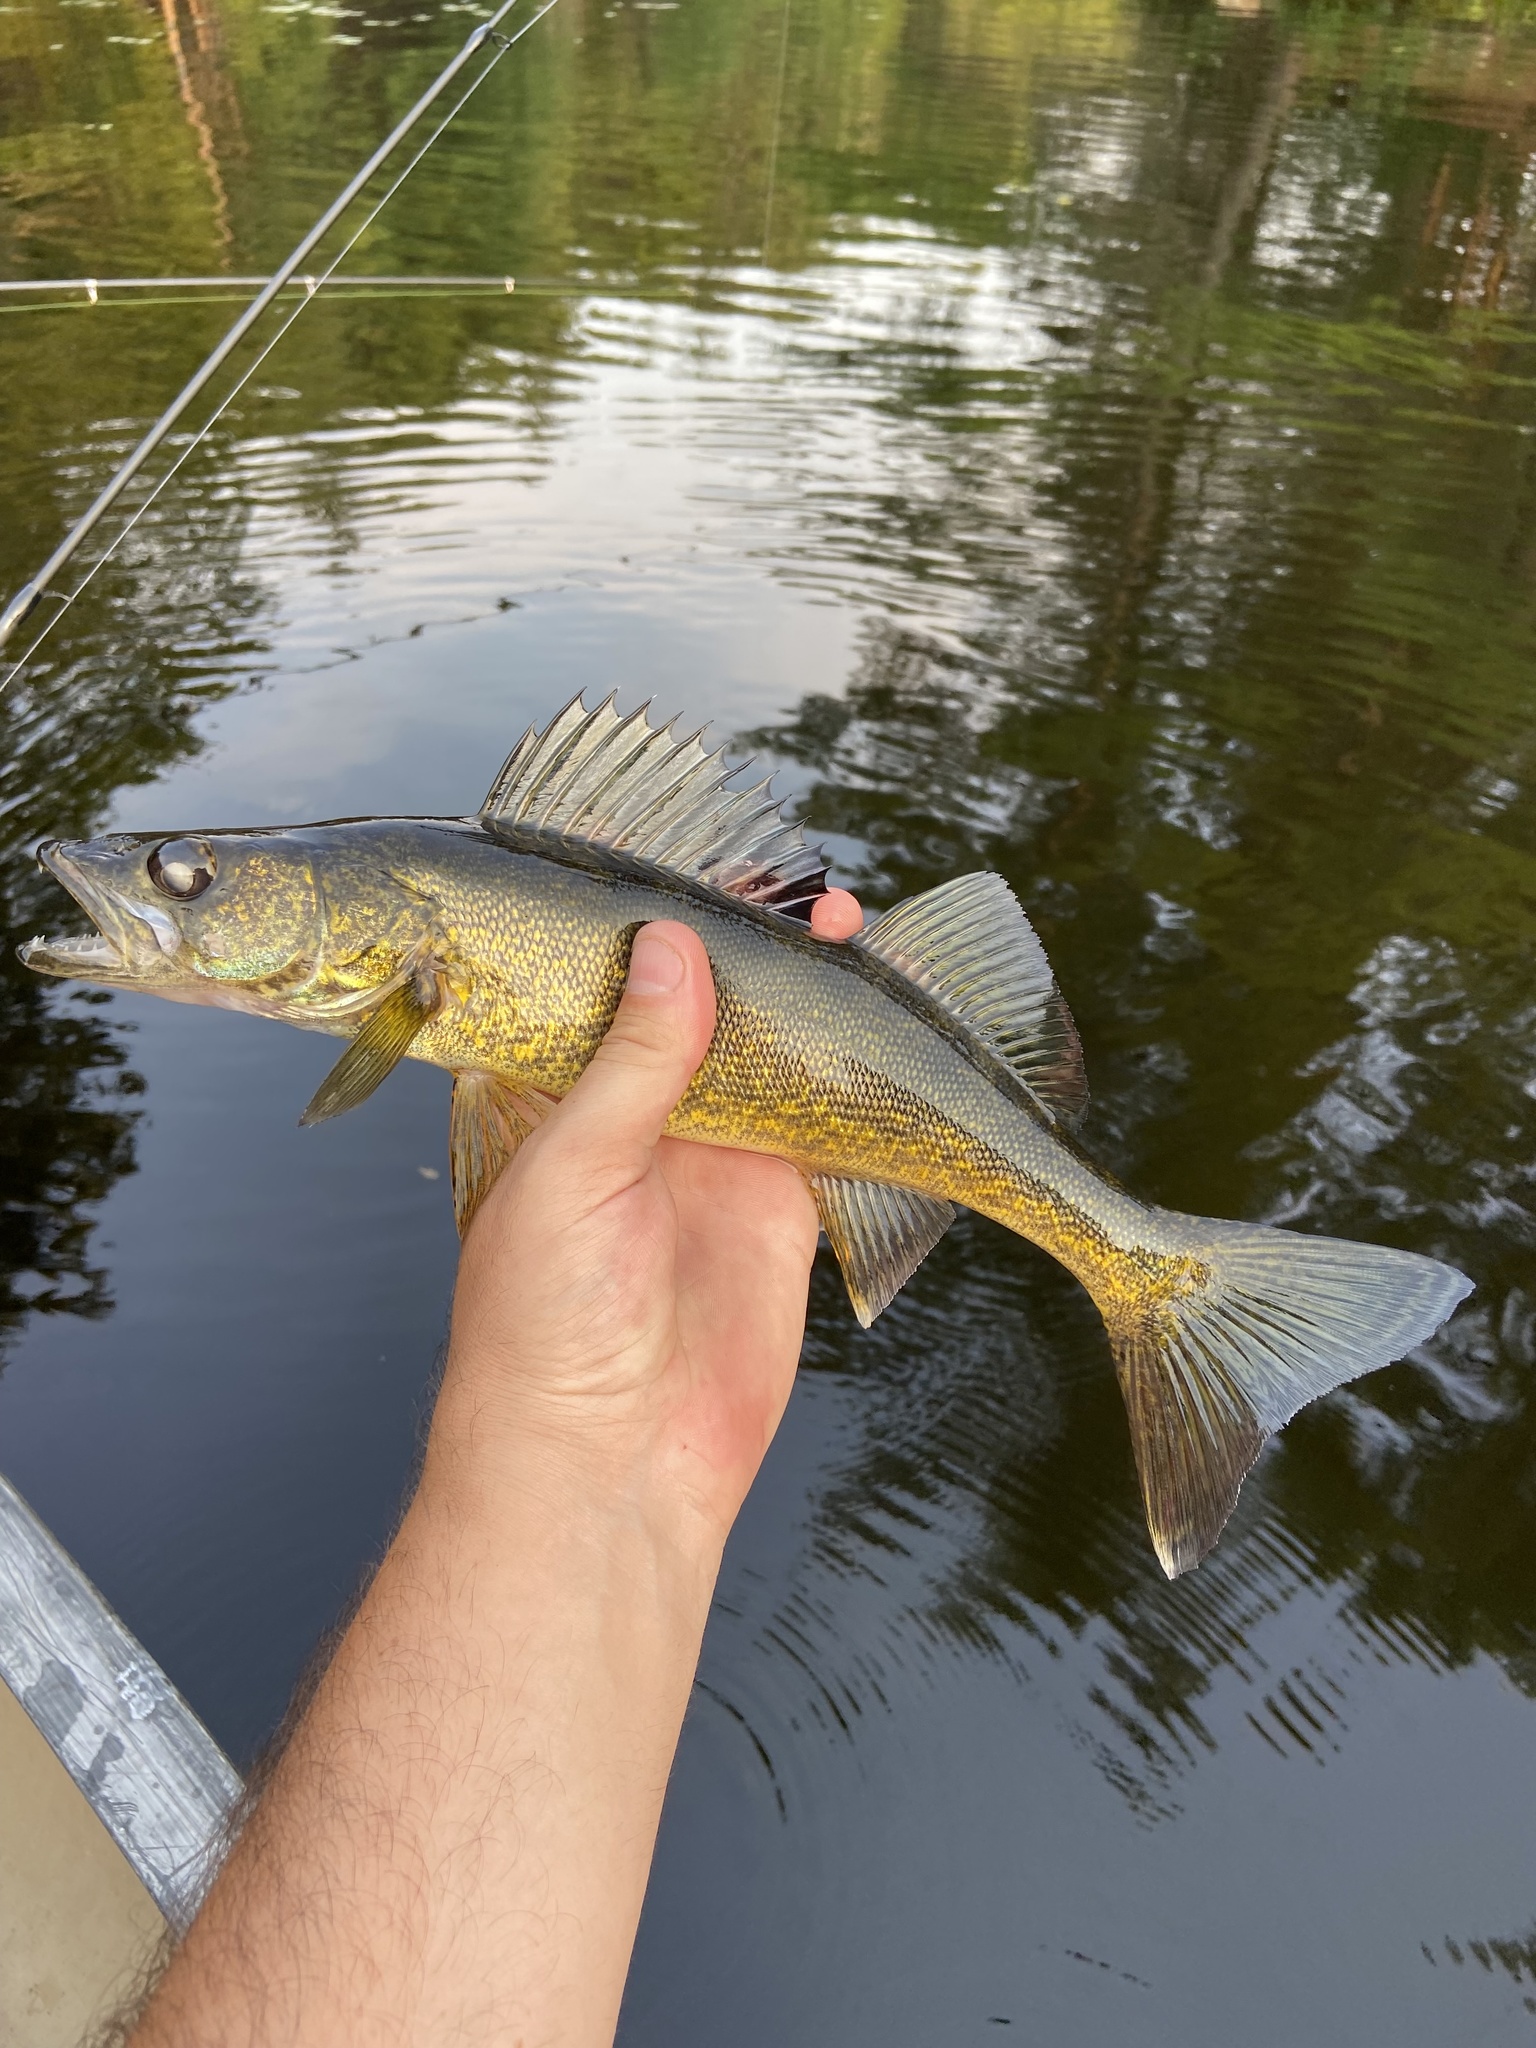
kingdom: Animalia
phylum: Chordata
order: Perciformes
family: Percidae
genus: Sander
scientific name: Sander vitreus
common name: Walleye
